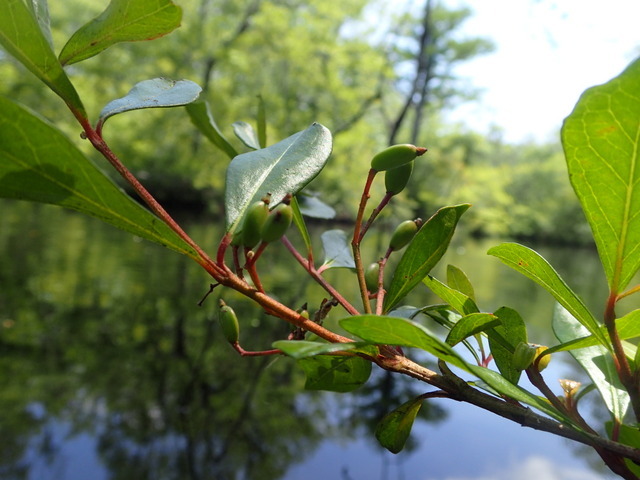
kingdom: Plantae
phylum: Tracheophyta
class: Magnoliopsida
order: Dipsacales
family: Viburnaceae
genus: Viburnum
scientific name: Viburnum obovatum
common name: Walter's viburnum
